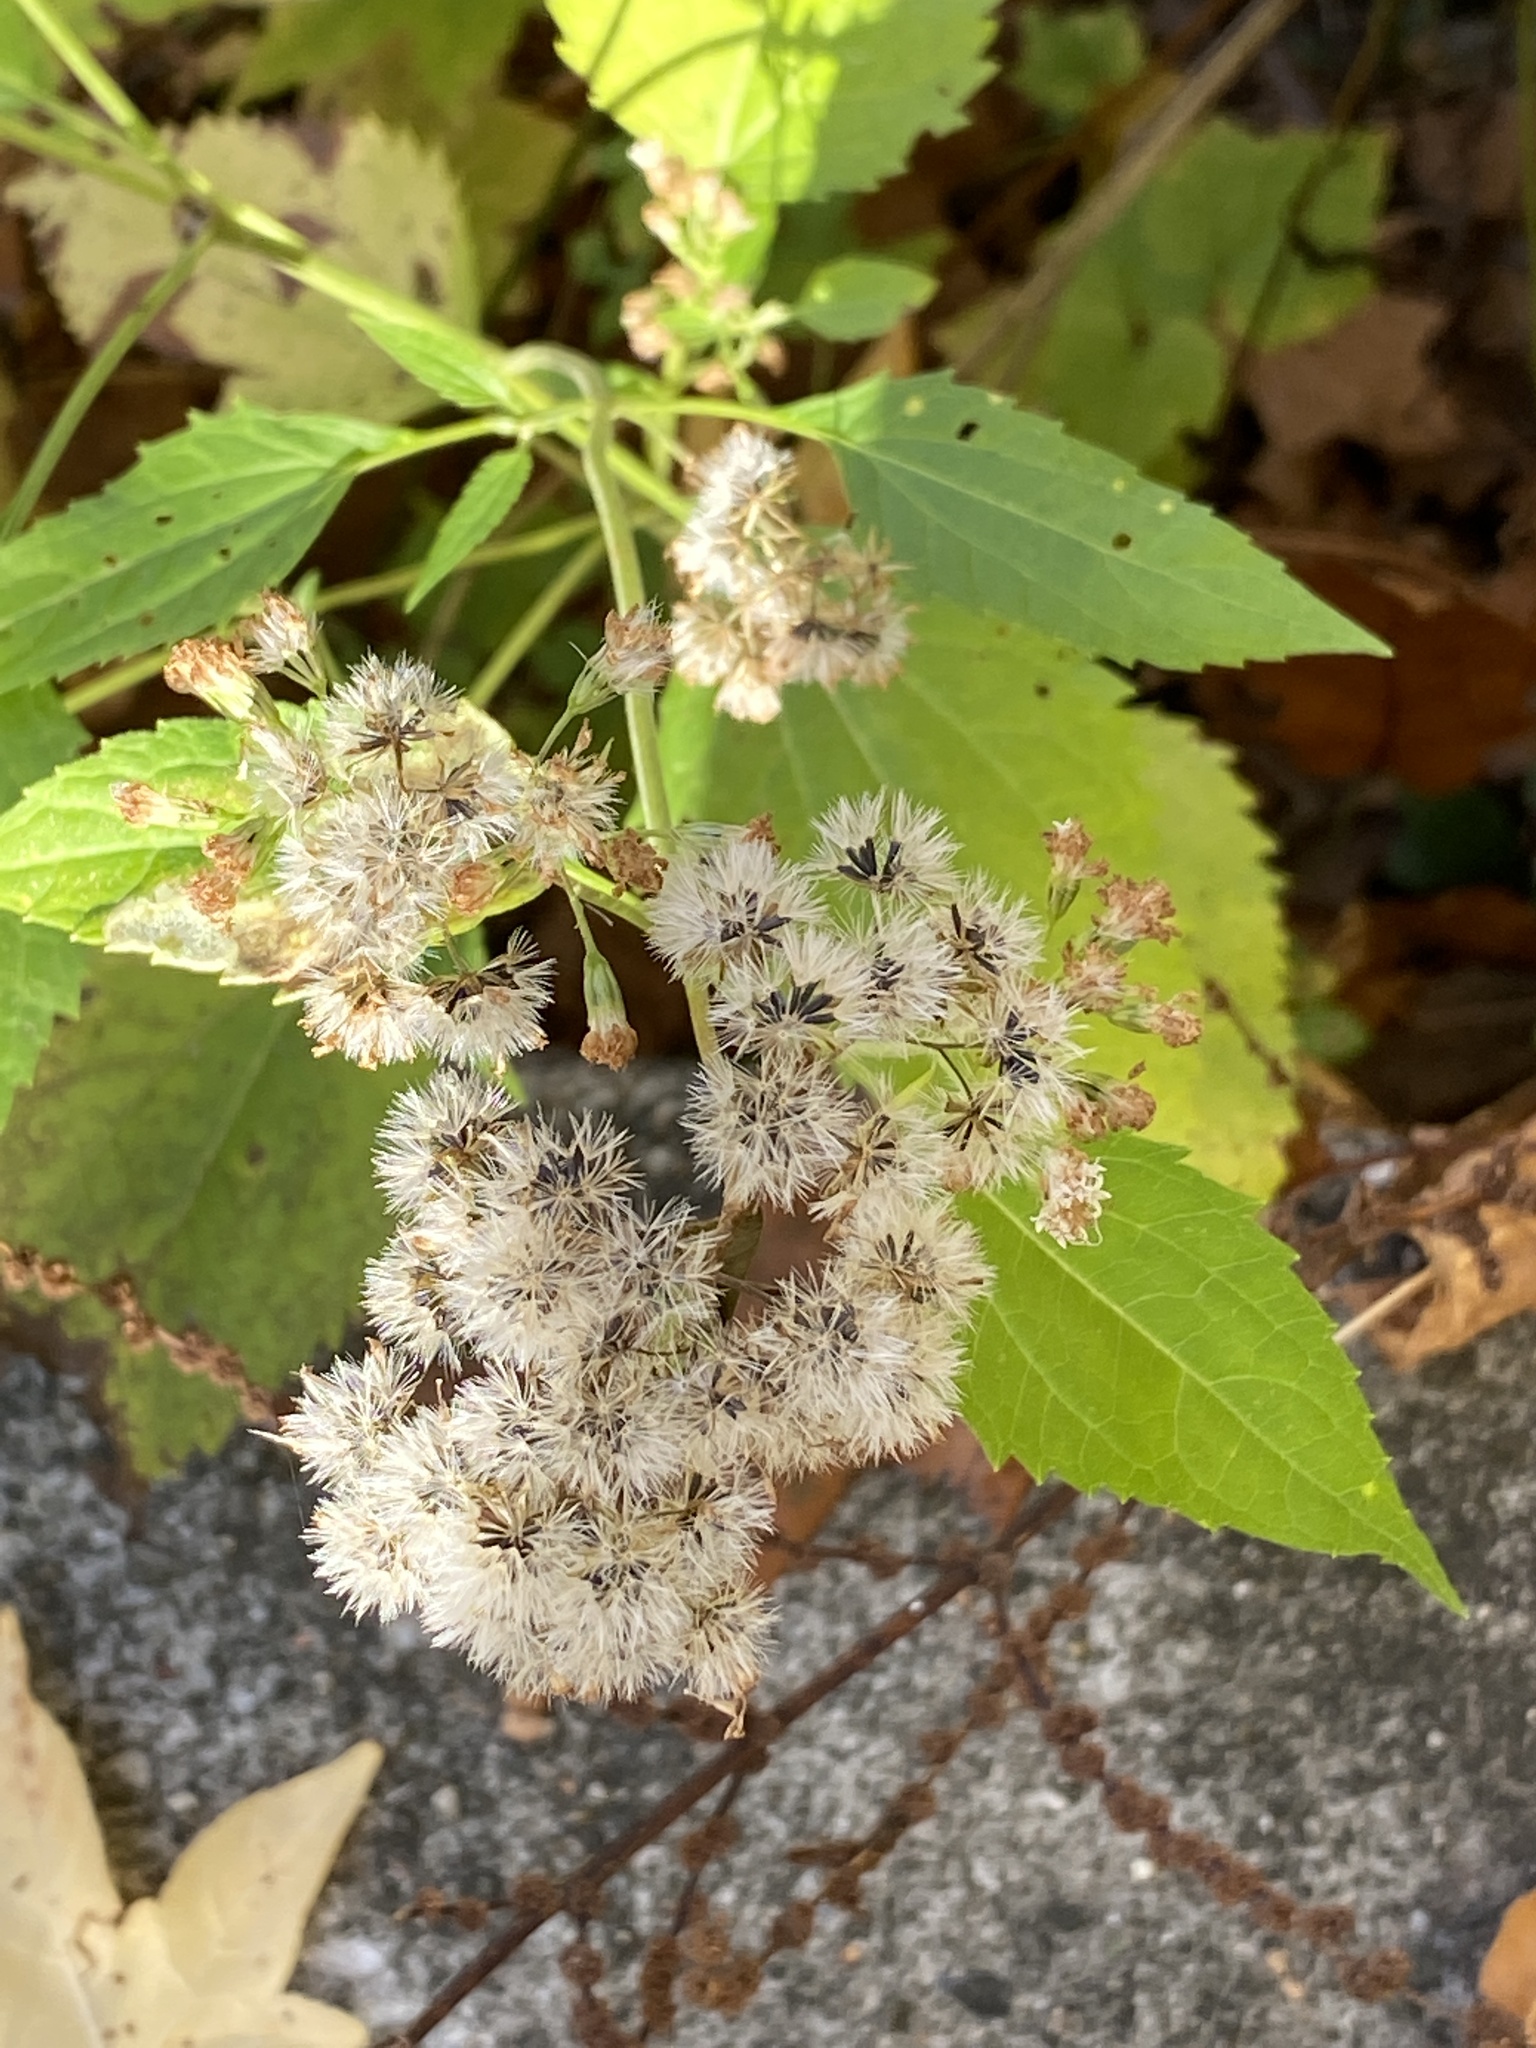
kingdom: Plantae
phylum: Tracheophyta
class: Magnoliopsida
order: Asterales
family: Asteraceae
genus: Ageratina
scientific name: Ageratina altissima
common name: White snakeroot
